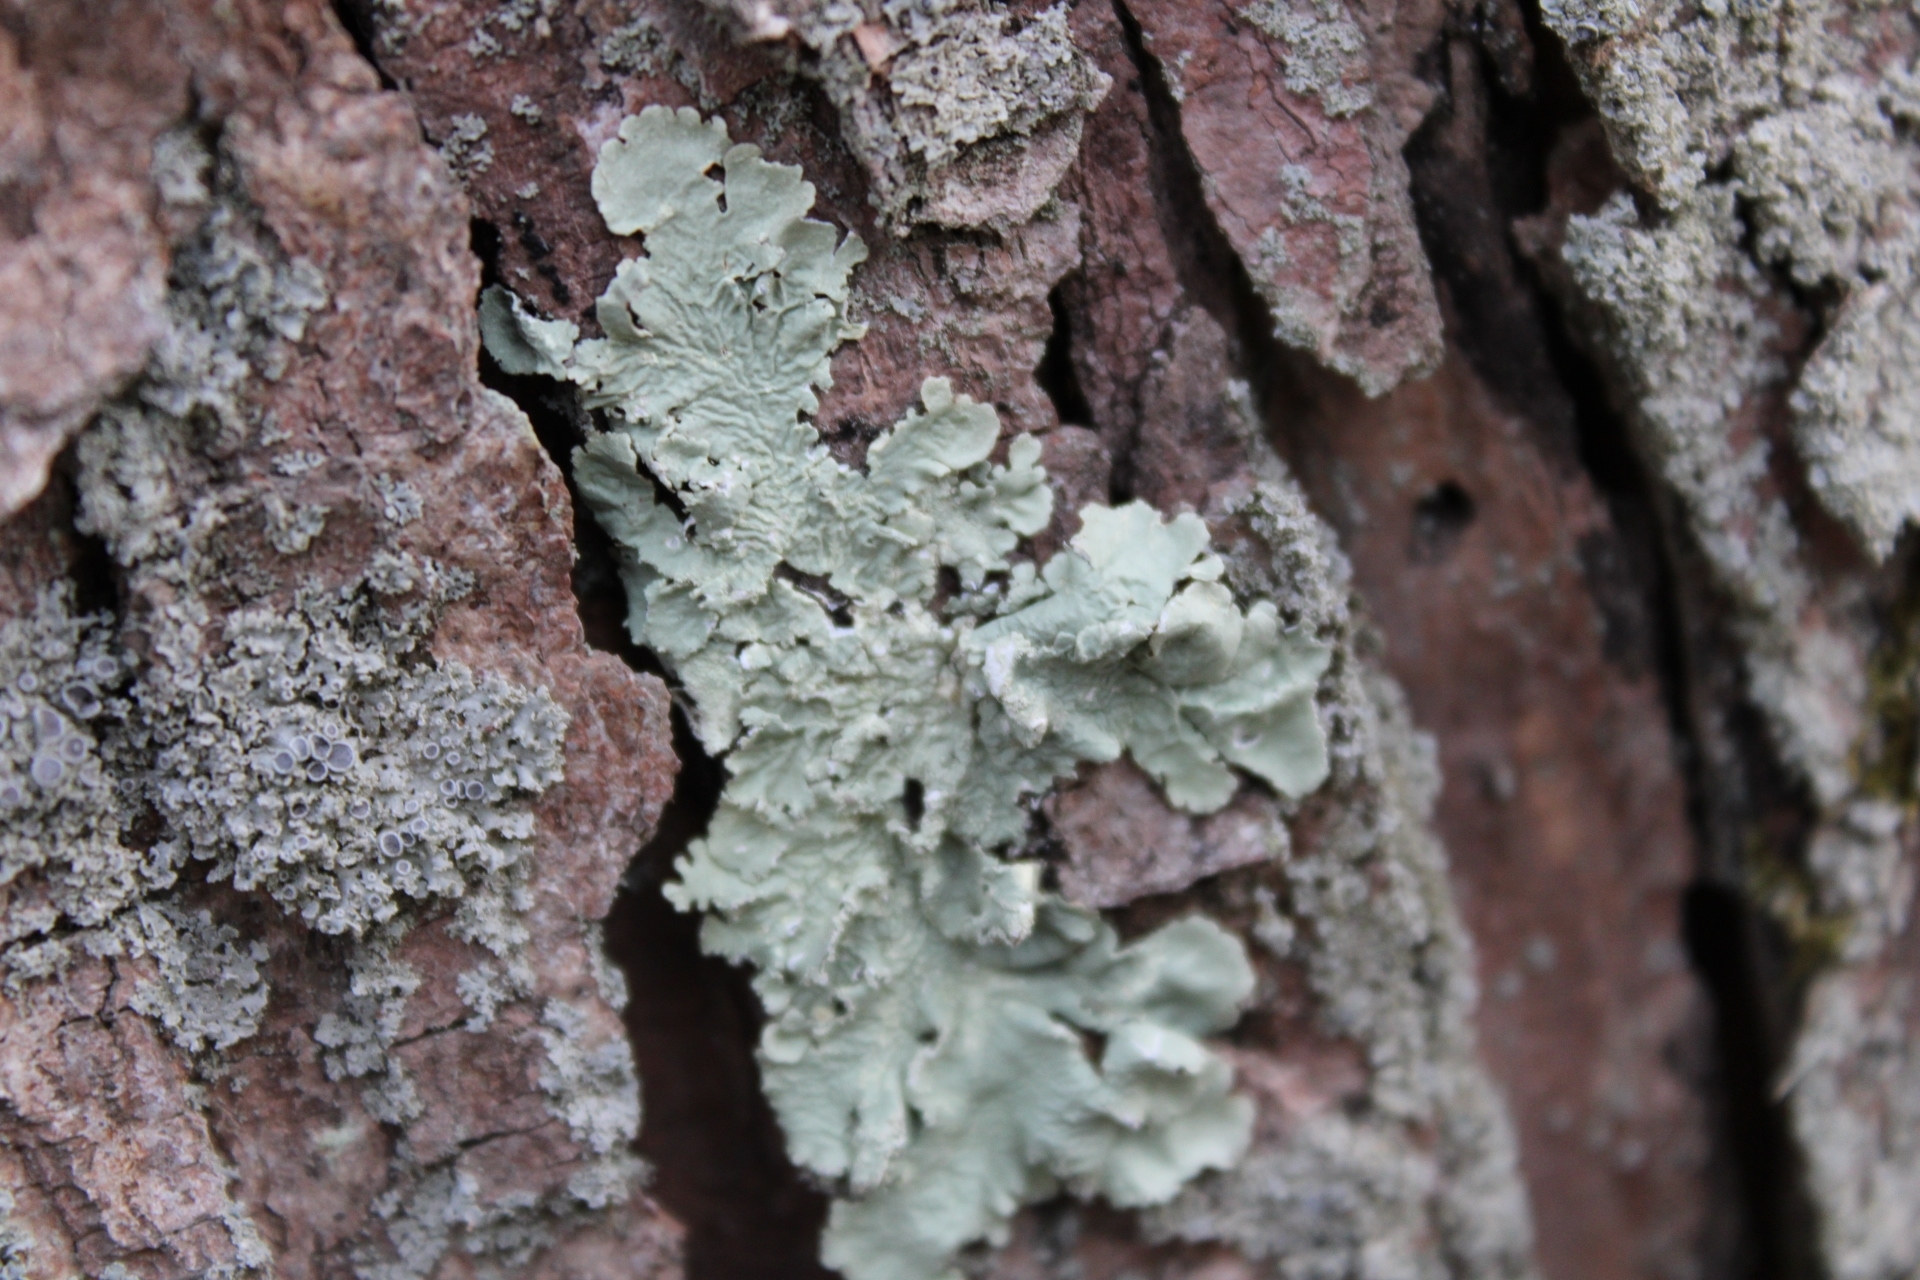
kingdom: Fungi
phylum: Ascomycota
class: Lecanoromycetes
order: Lecanorales
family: Parmeliaceae
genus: Flavoparmelia
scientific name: Flavoparmelia caperata
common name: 40-mile per hour lichen
